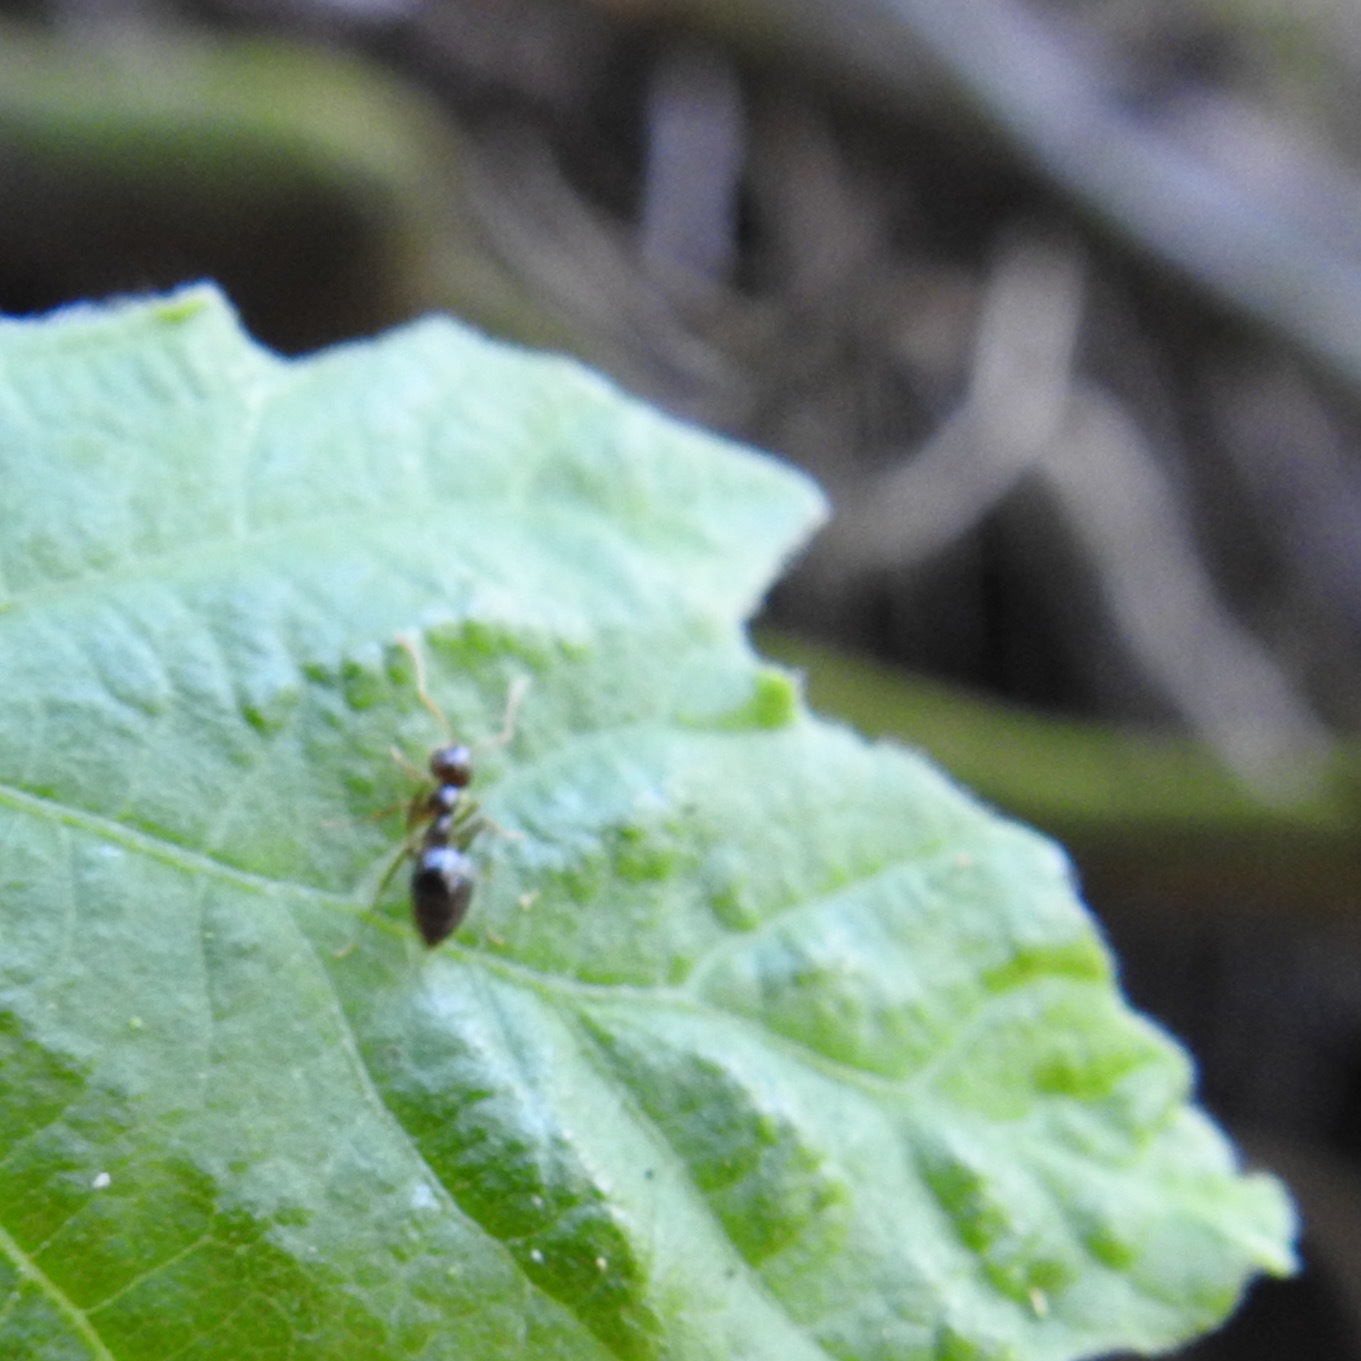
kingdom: Animalia
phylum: Arthropoda
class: Insecta
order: Hymenoptera
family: Formicidae
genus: Prenolepis
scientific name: Prenolepis imparis
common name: Small honey ant
